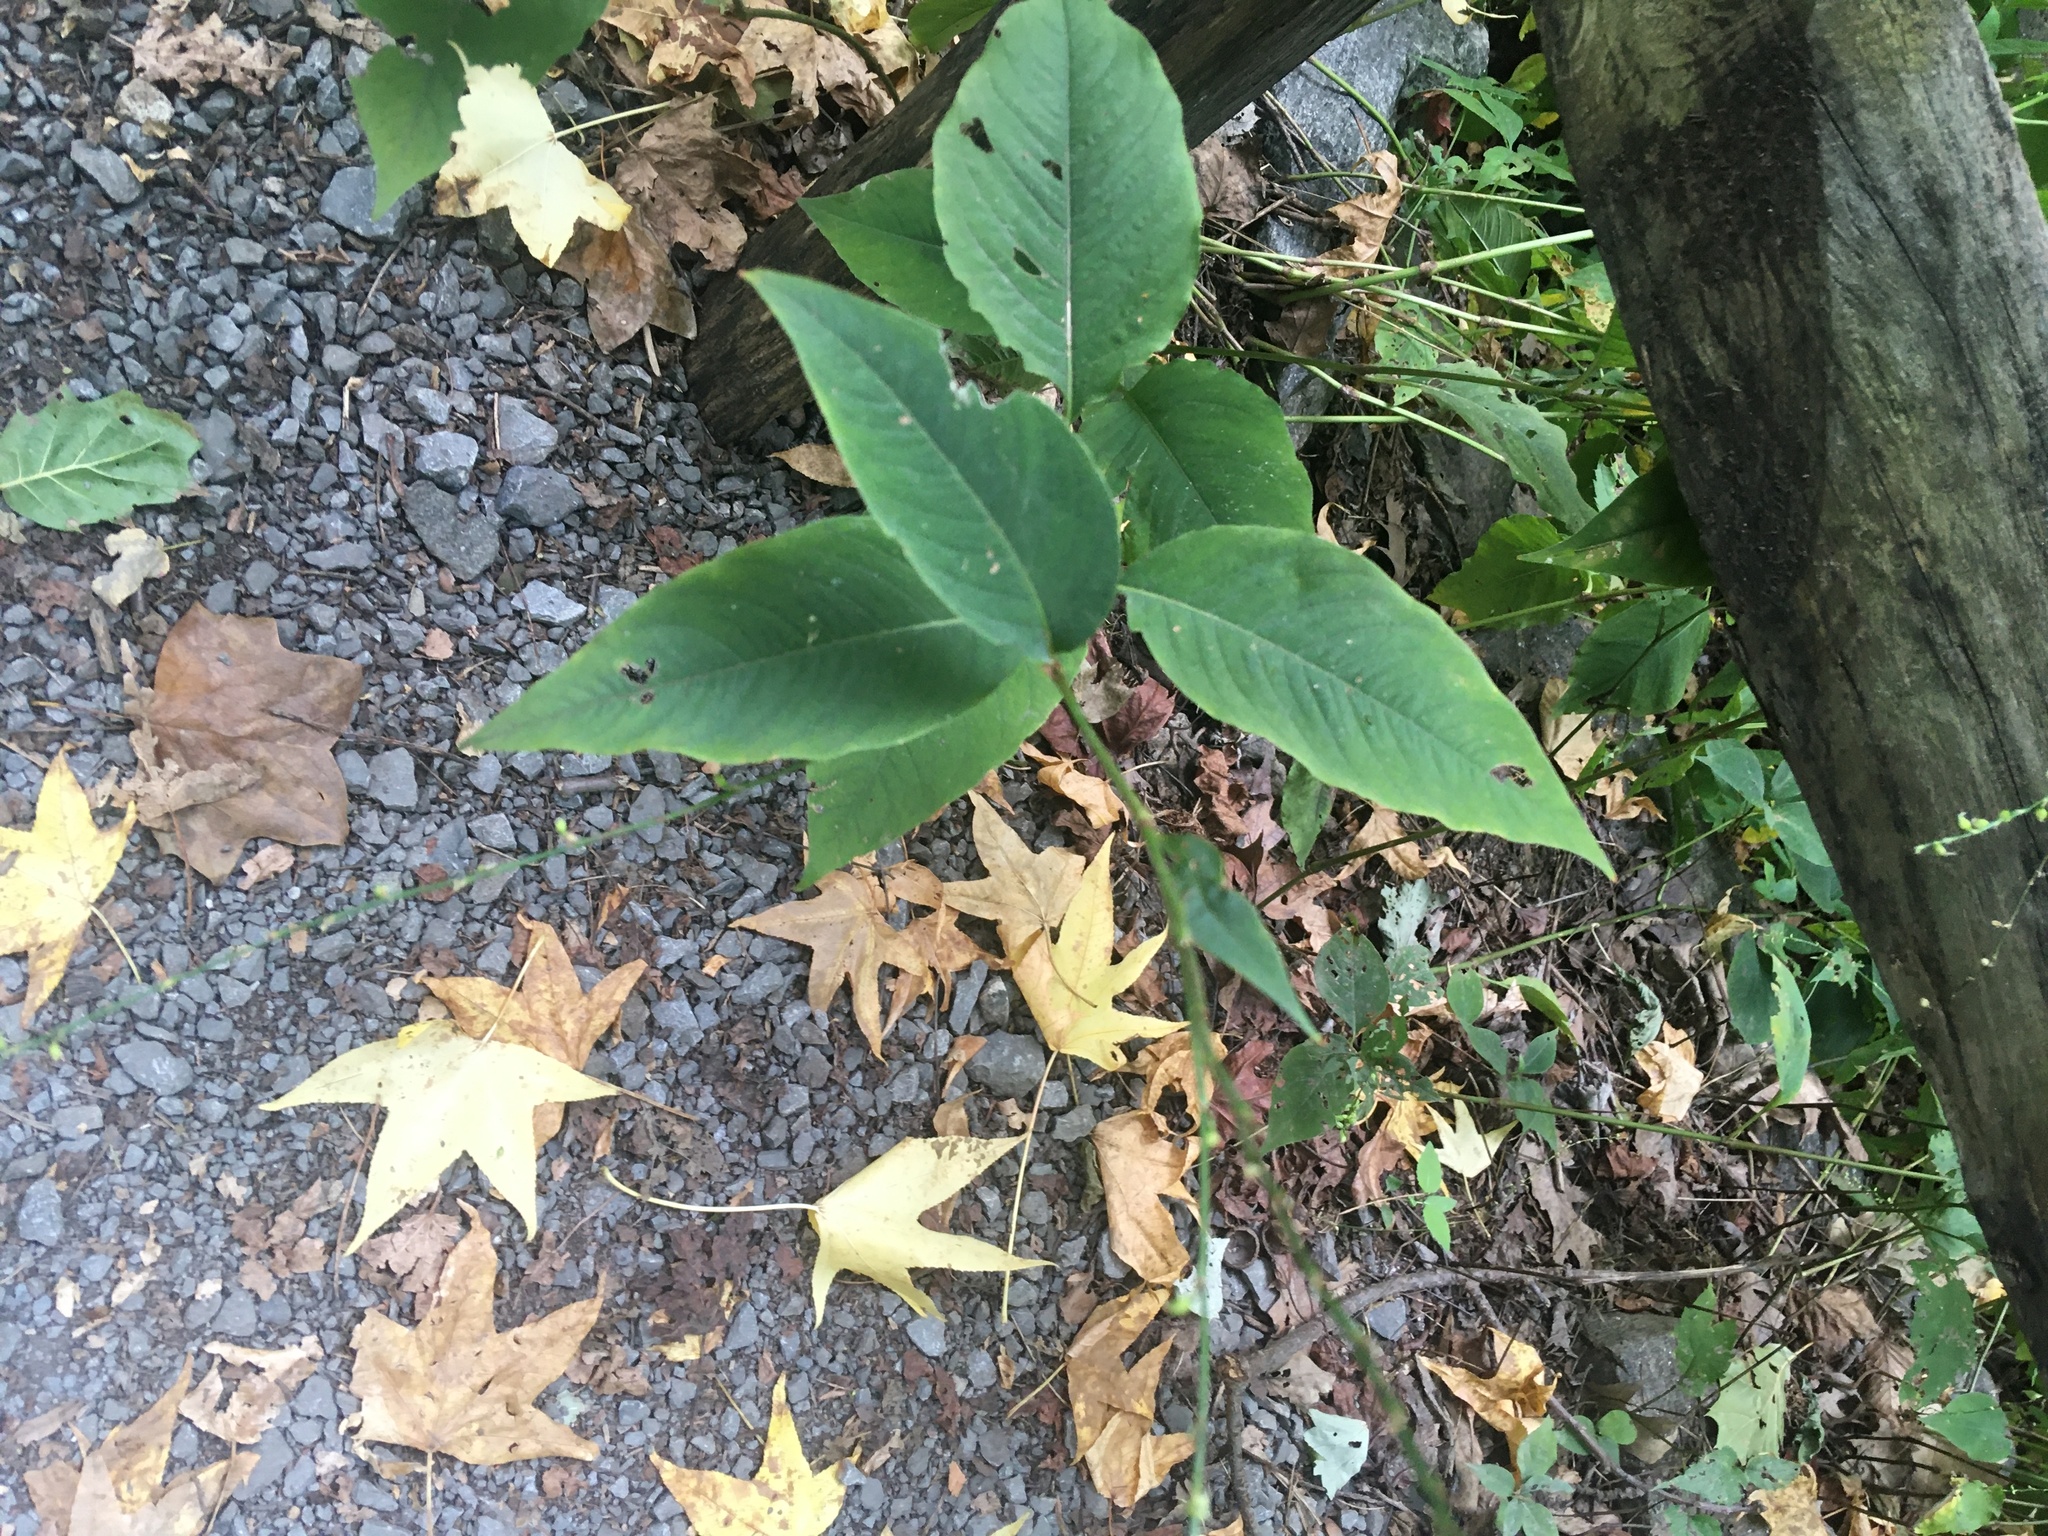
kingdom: Plantae
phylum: Tracheophyta
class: Magnoliopsida
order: Caryophyllales
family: Polygonaceae
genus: Persicaria
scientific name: Persicaria virginiana
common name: Jumpseed
